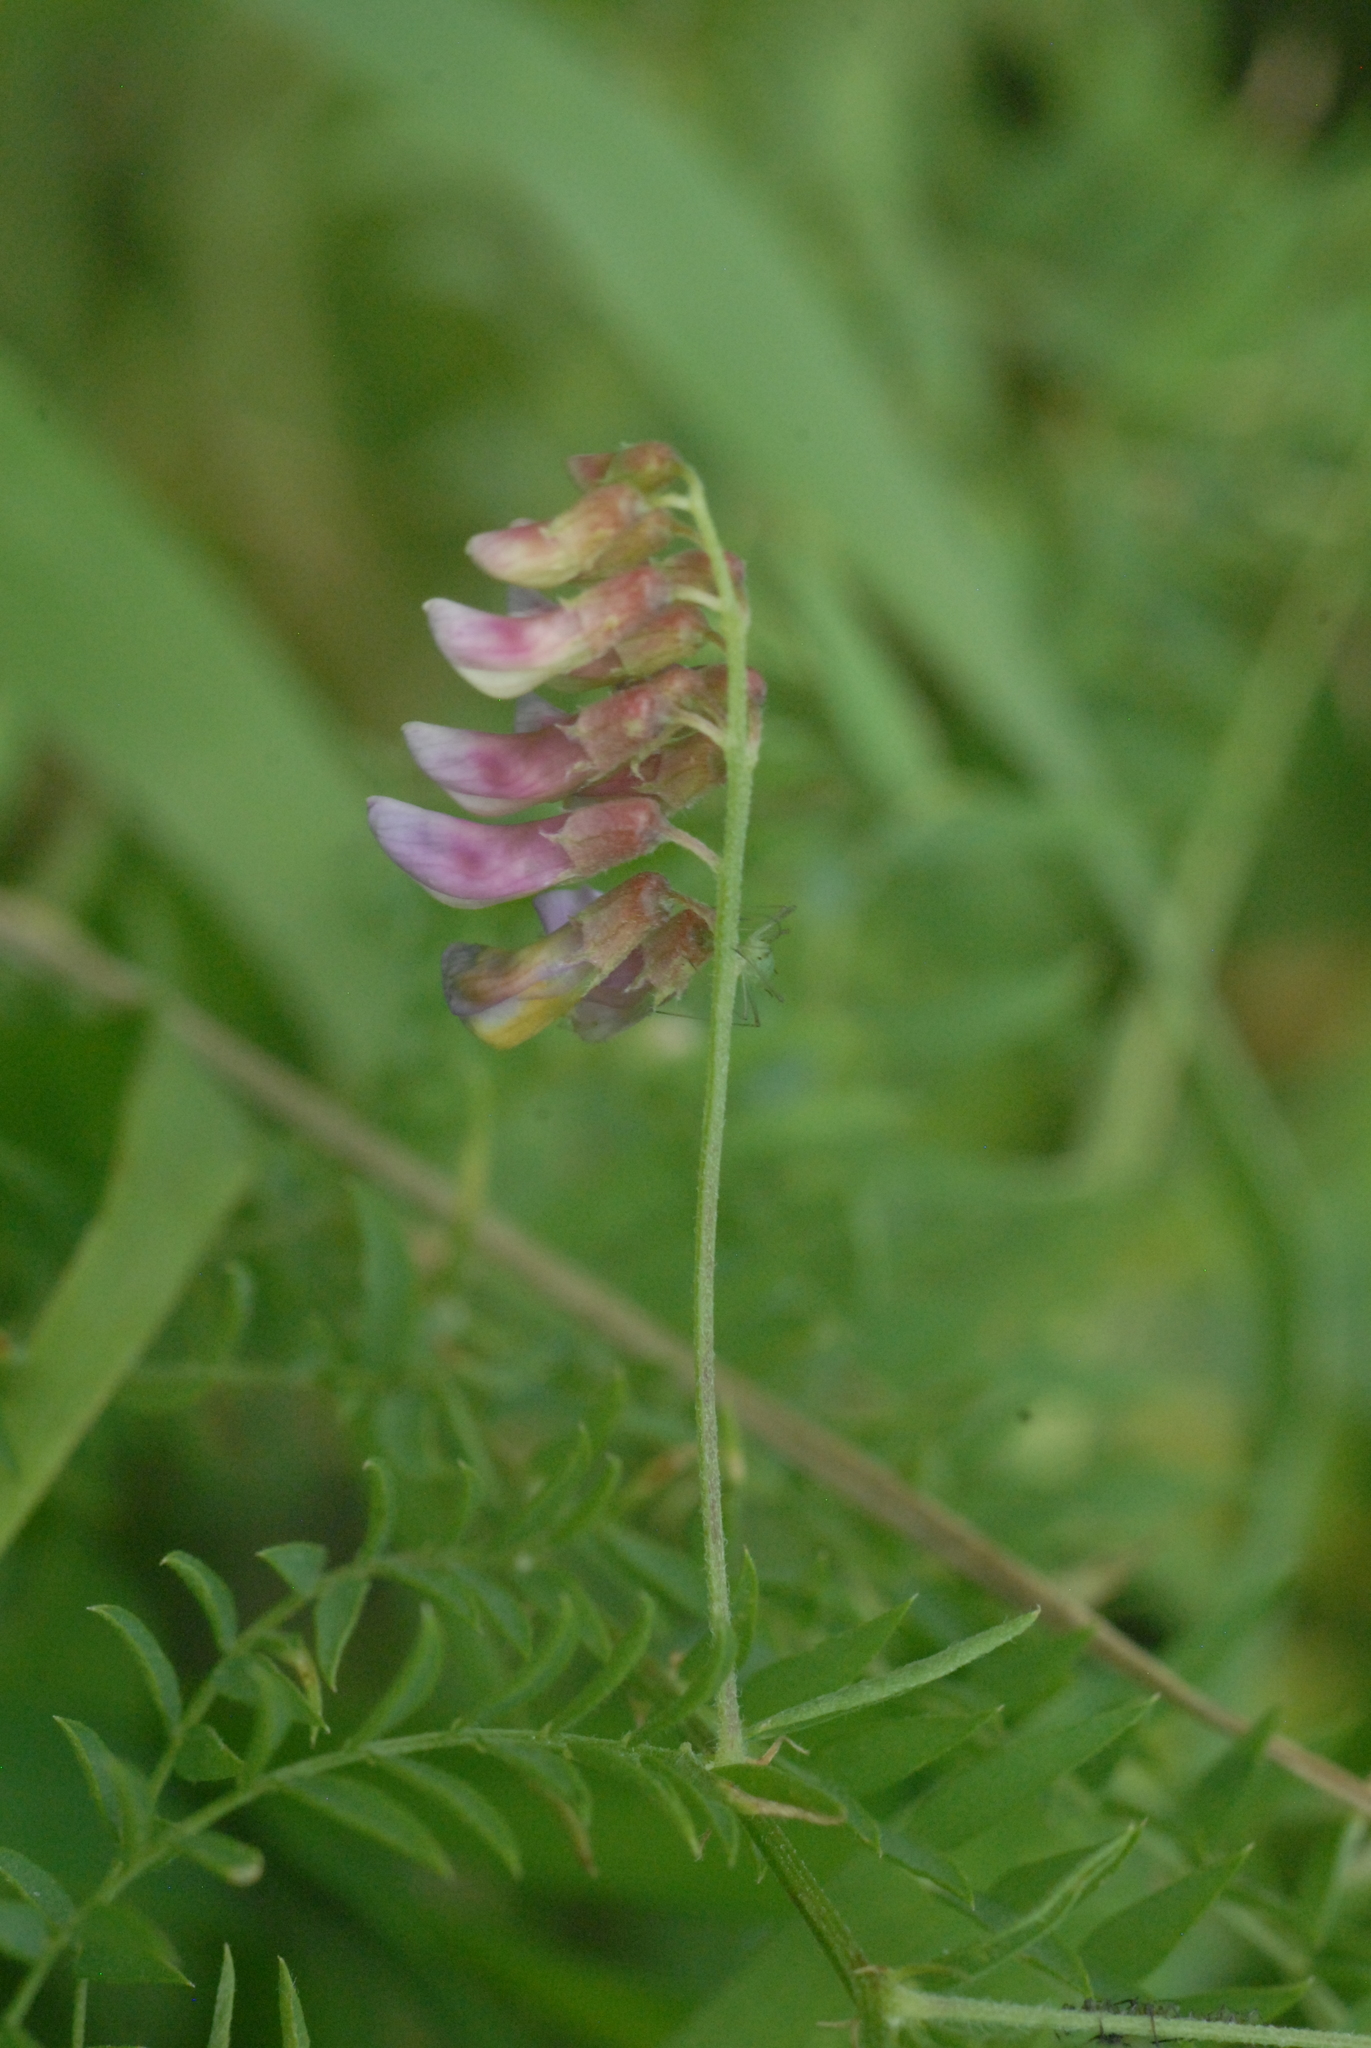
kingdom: Plantae
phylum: Tracheophyta
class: Magnoliopsida
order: Fabales
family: Fabaceae
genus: Vicia
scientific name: Vicia megalotropis
